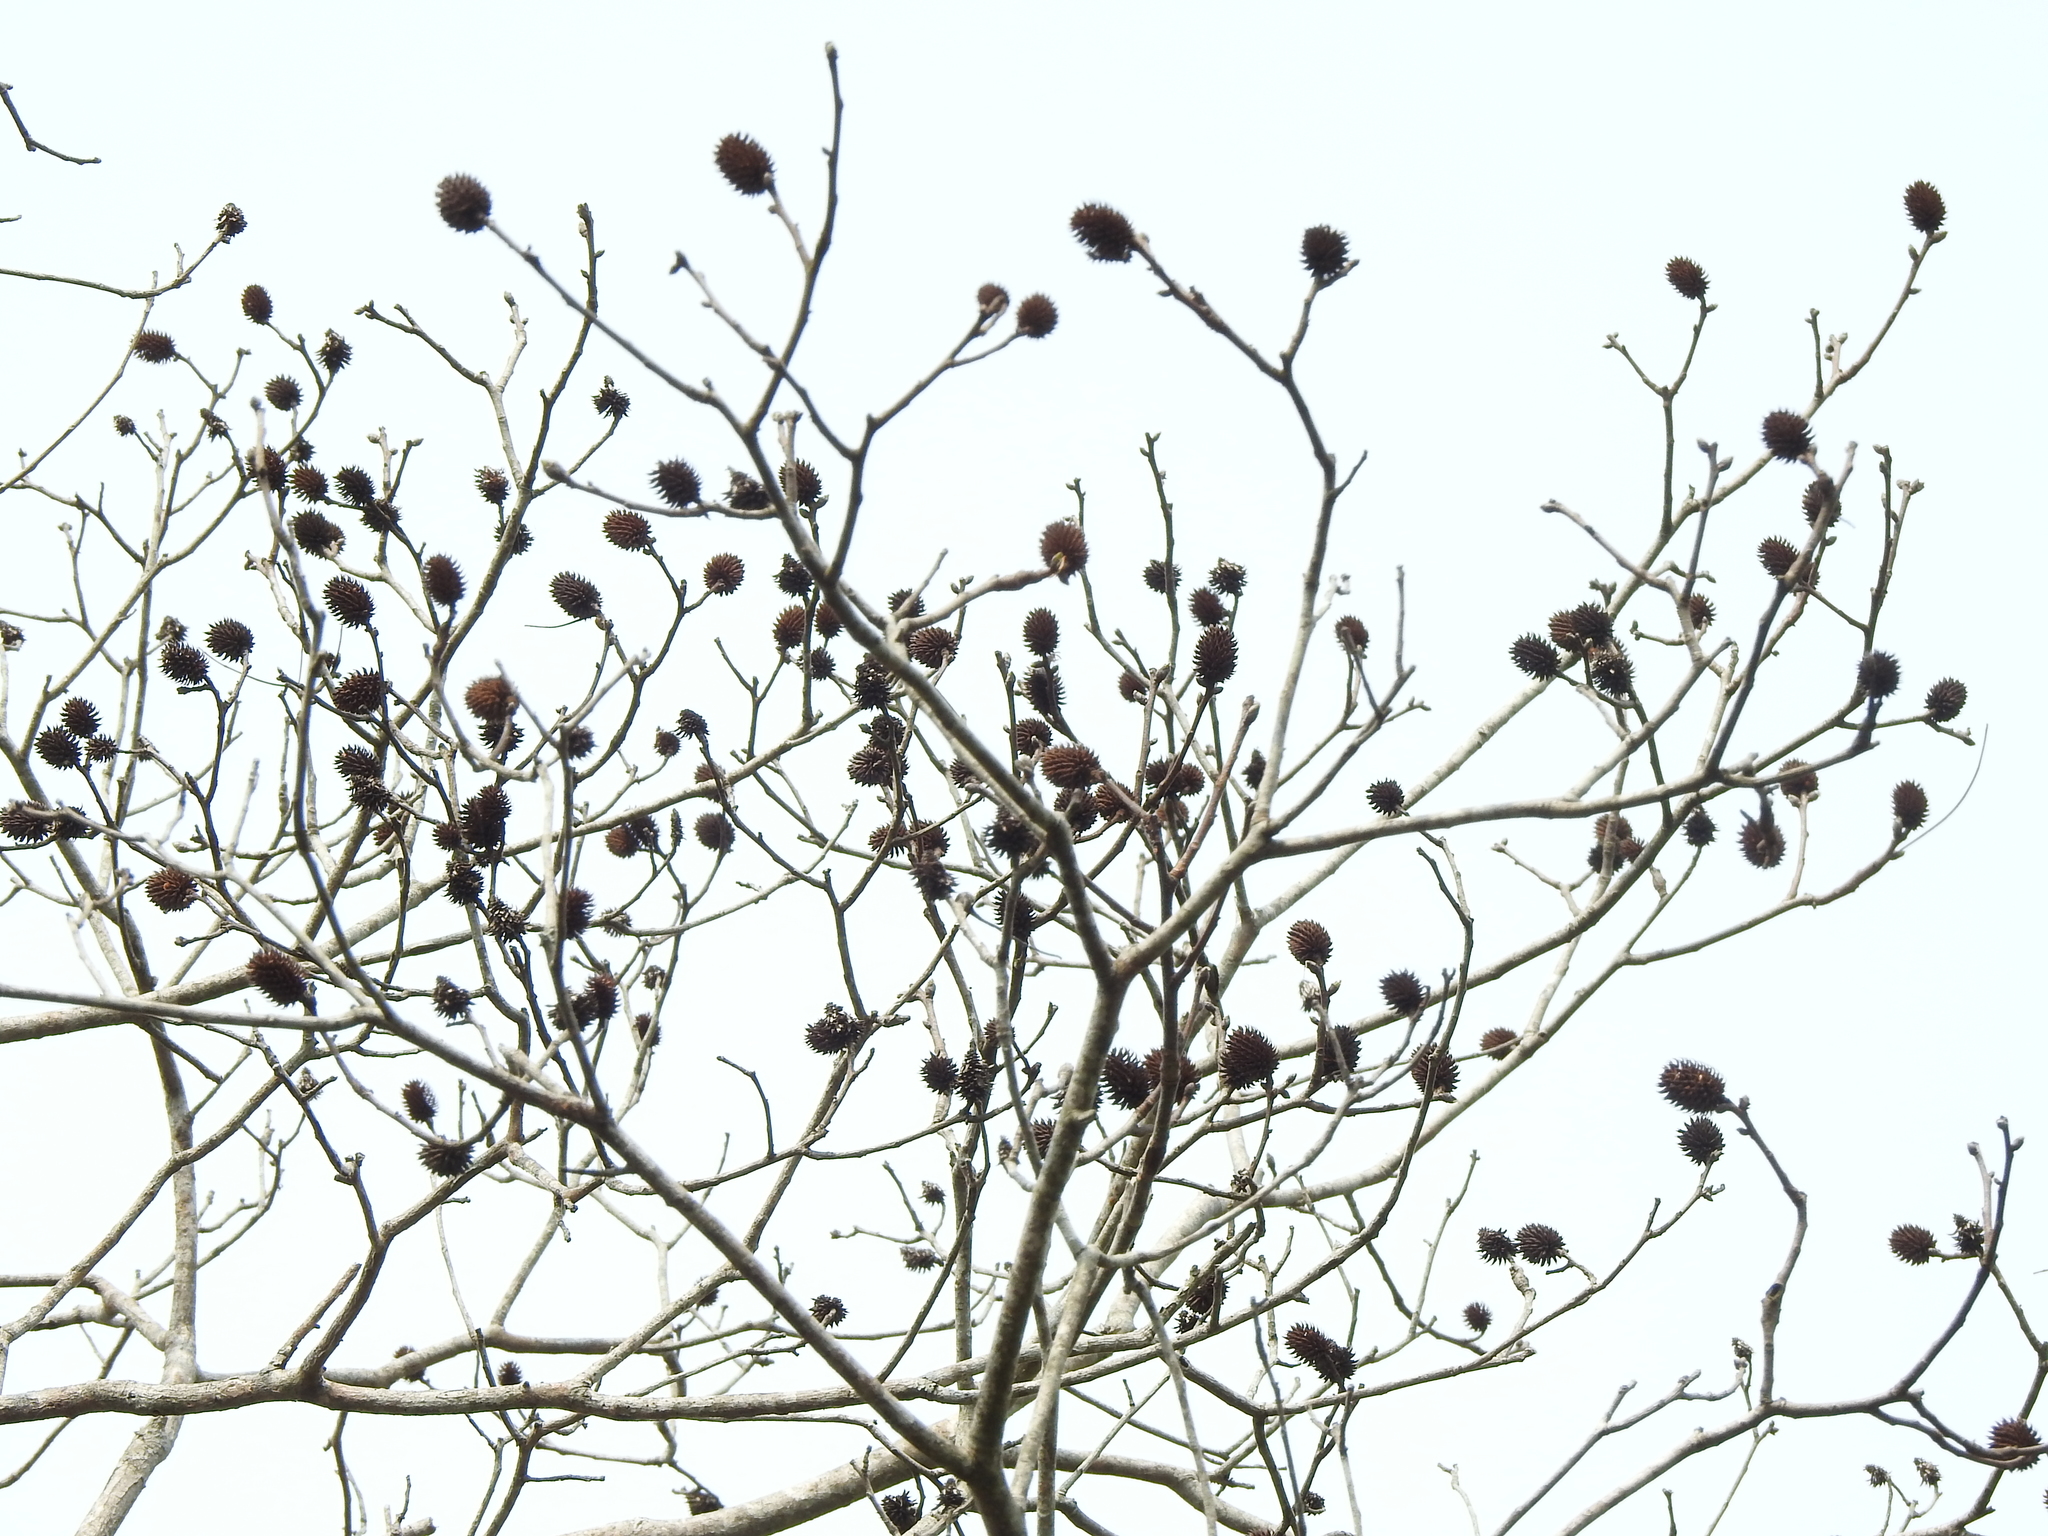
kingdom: Plantae
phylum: Tracheophyta
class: Magnoliopsida
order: Fagales
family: Juglandaceae
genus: Platycarya
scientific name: Platycarya strobilacea
